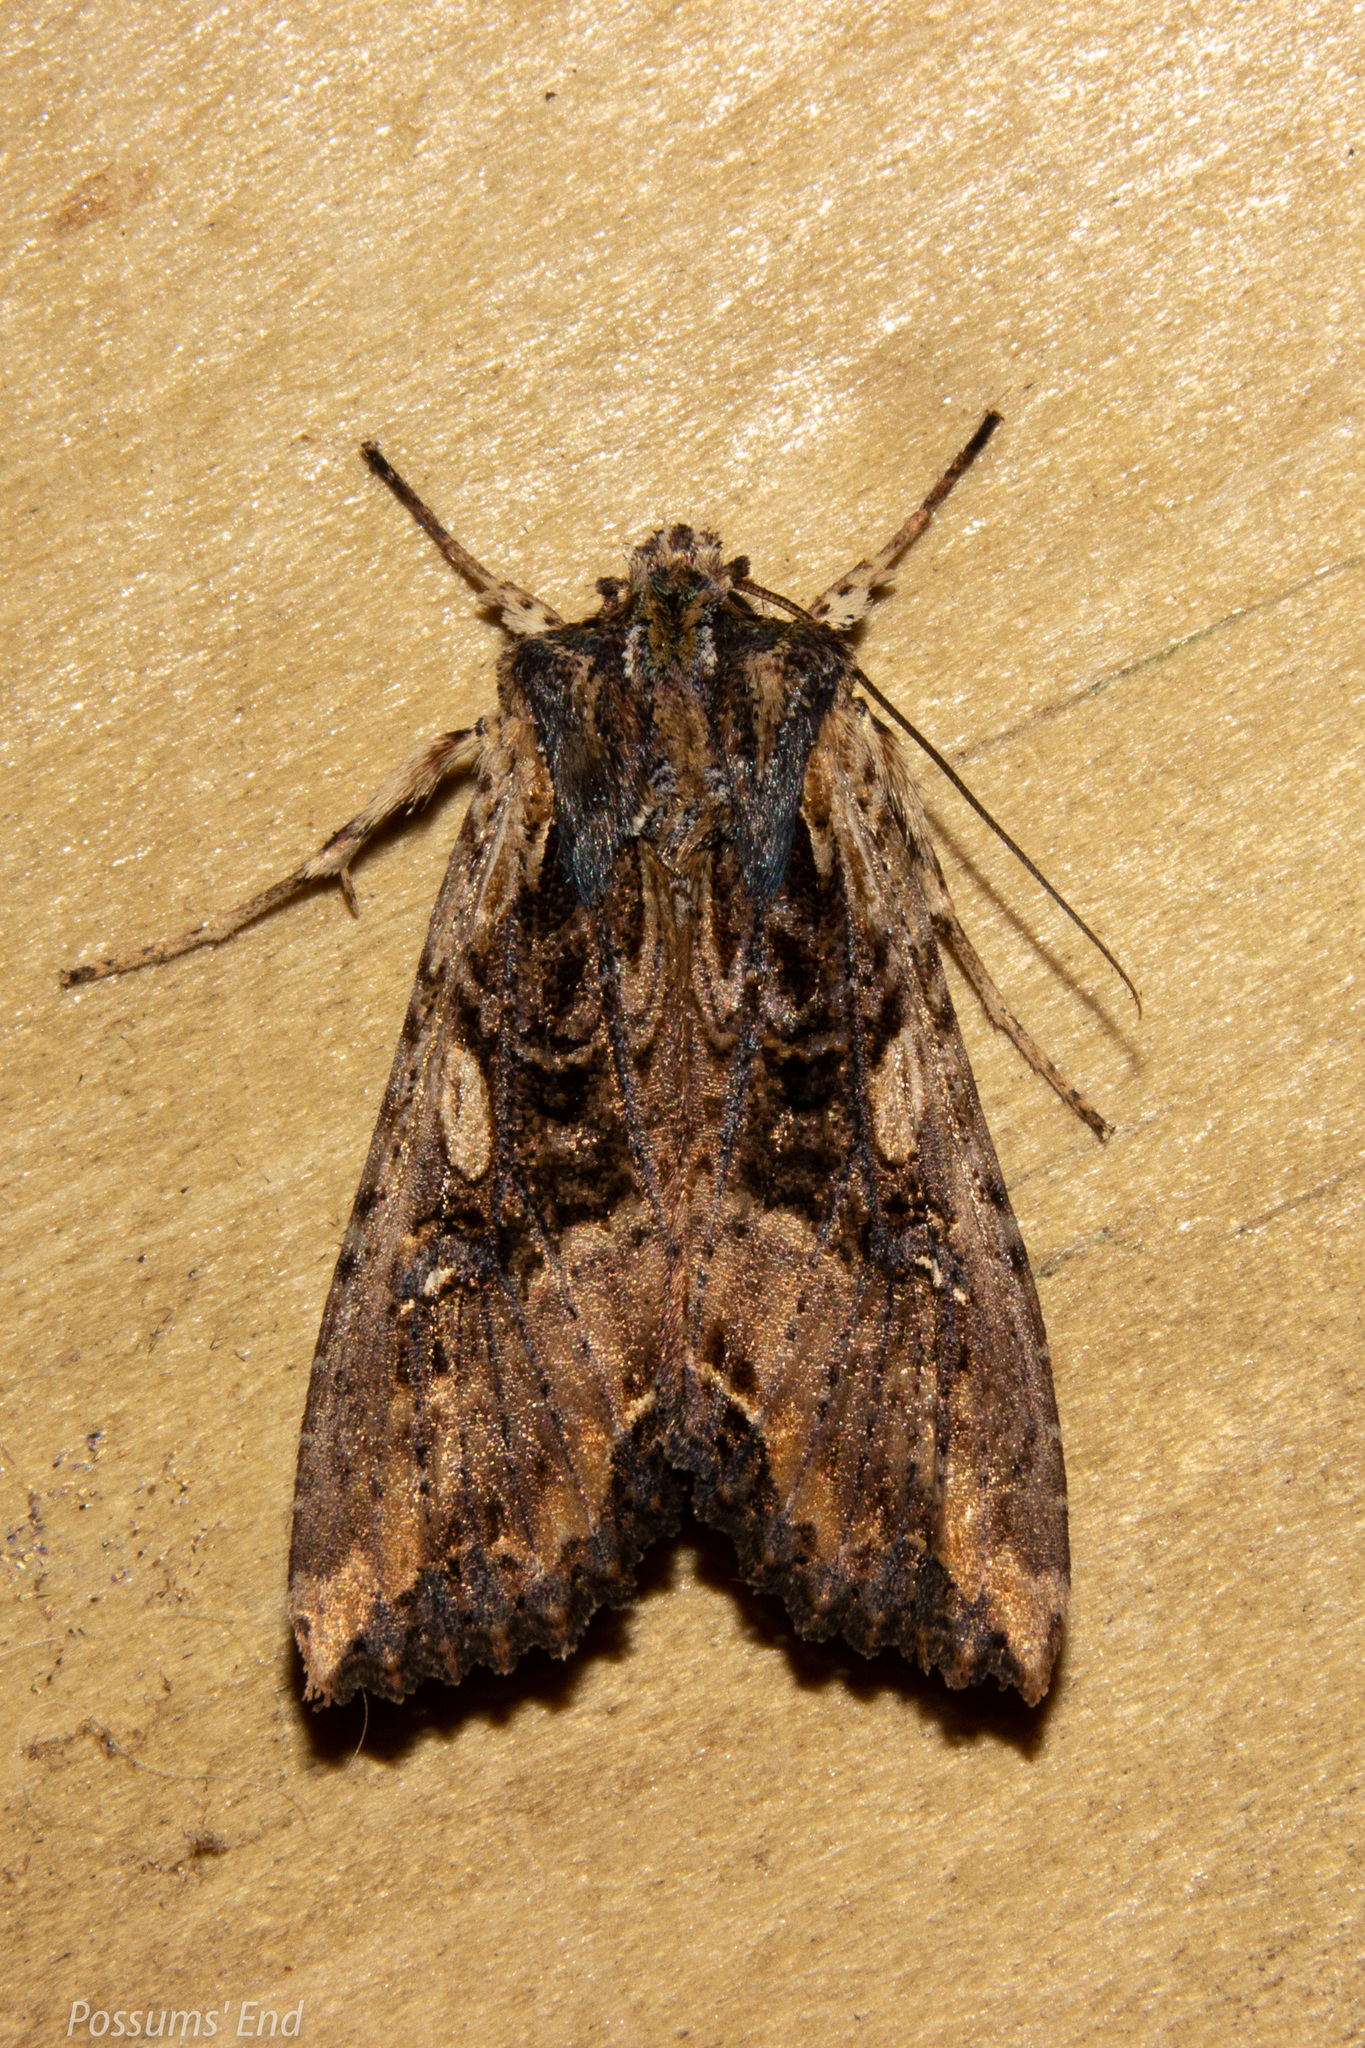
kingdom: Animalia
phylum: Arthropoda
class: Insecta
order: Lepidoptera
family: Noctuidae
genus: Meterana
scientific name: Meterana stipata
